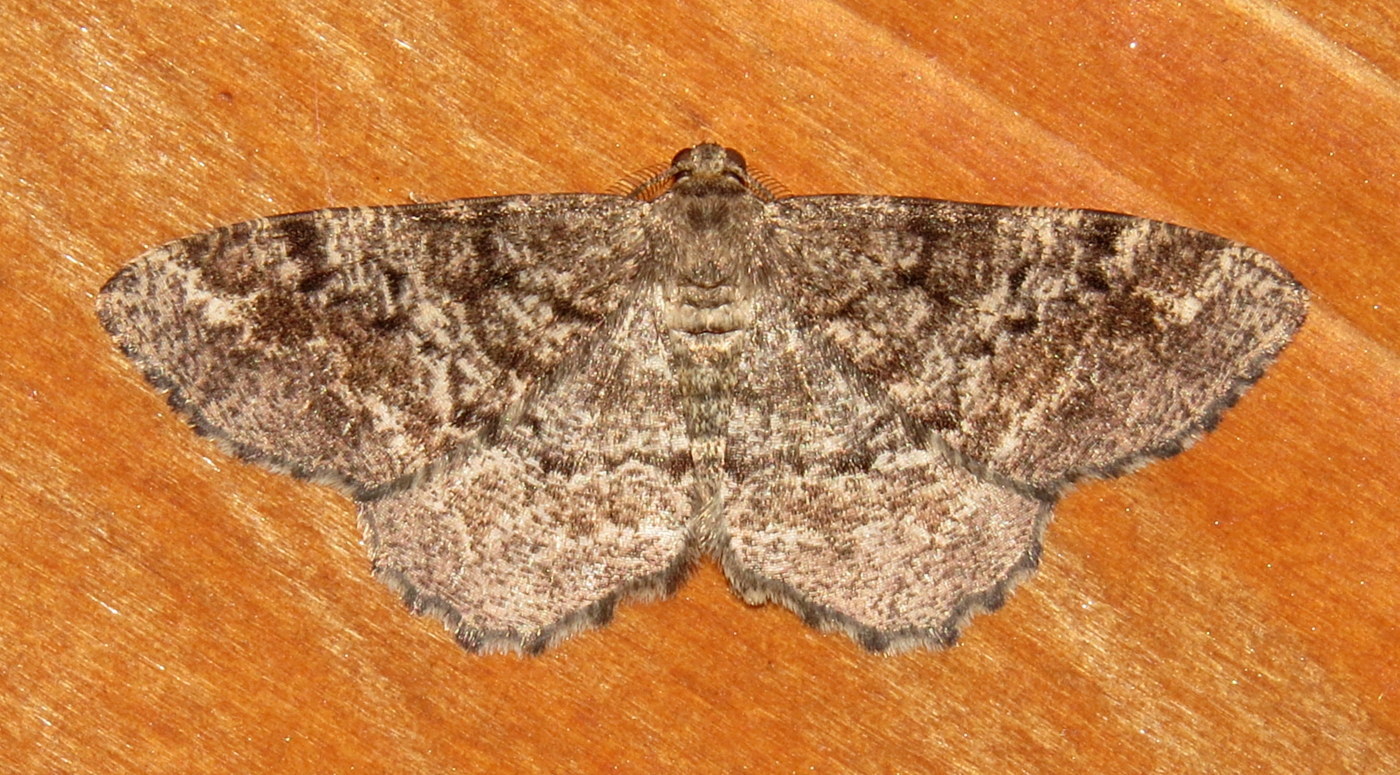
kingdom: Animalia
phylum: Arthropoda
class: Insecta
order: Lepidoptera
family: Geometridae
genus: Hypagyrtis
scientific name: Hypagyrtis piniata
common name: Pine measuringworm
